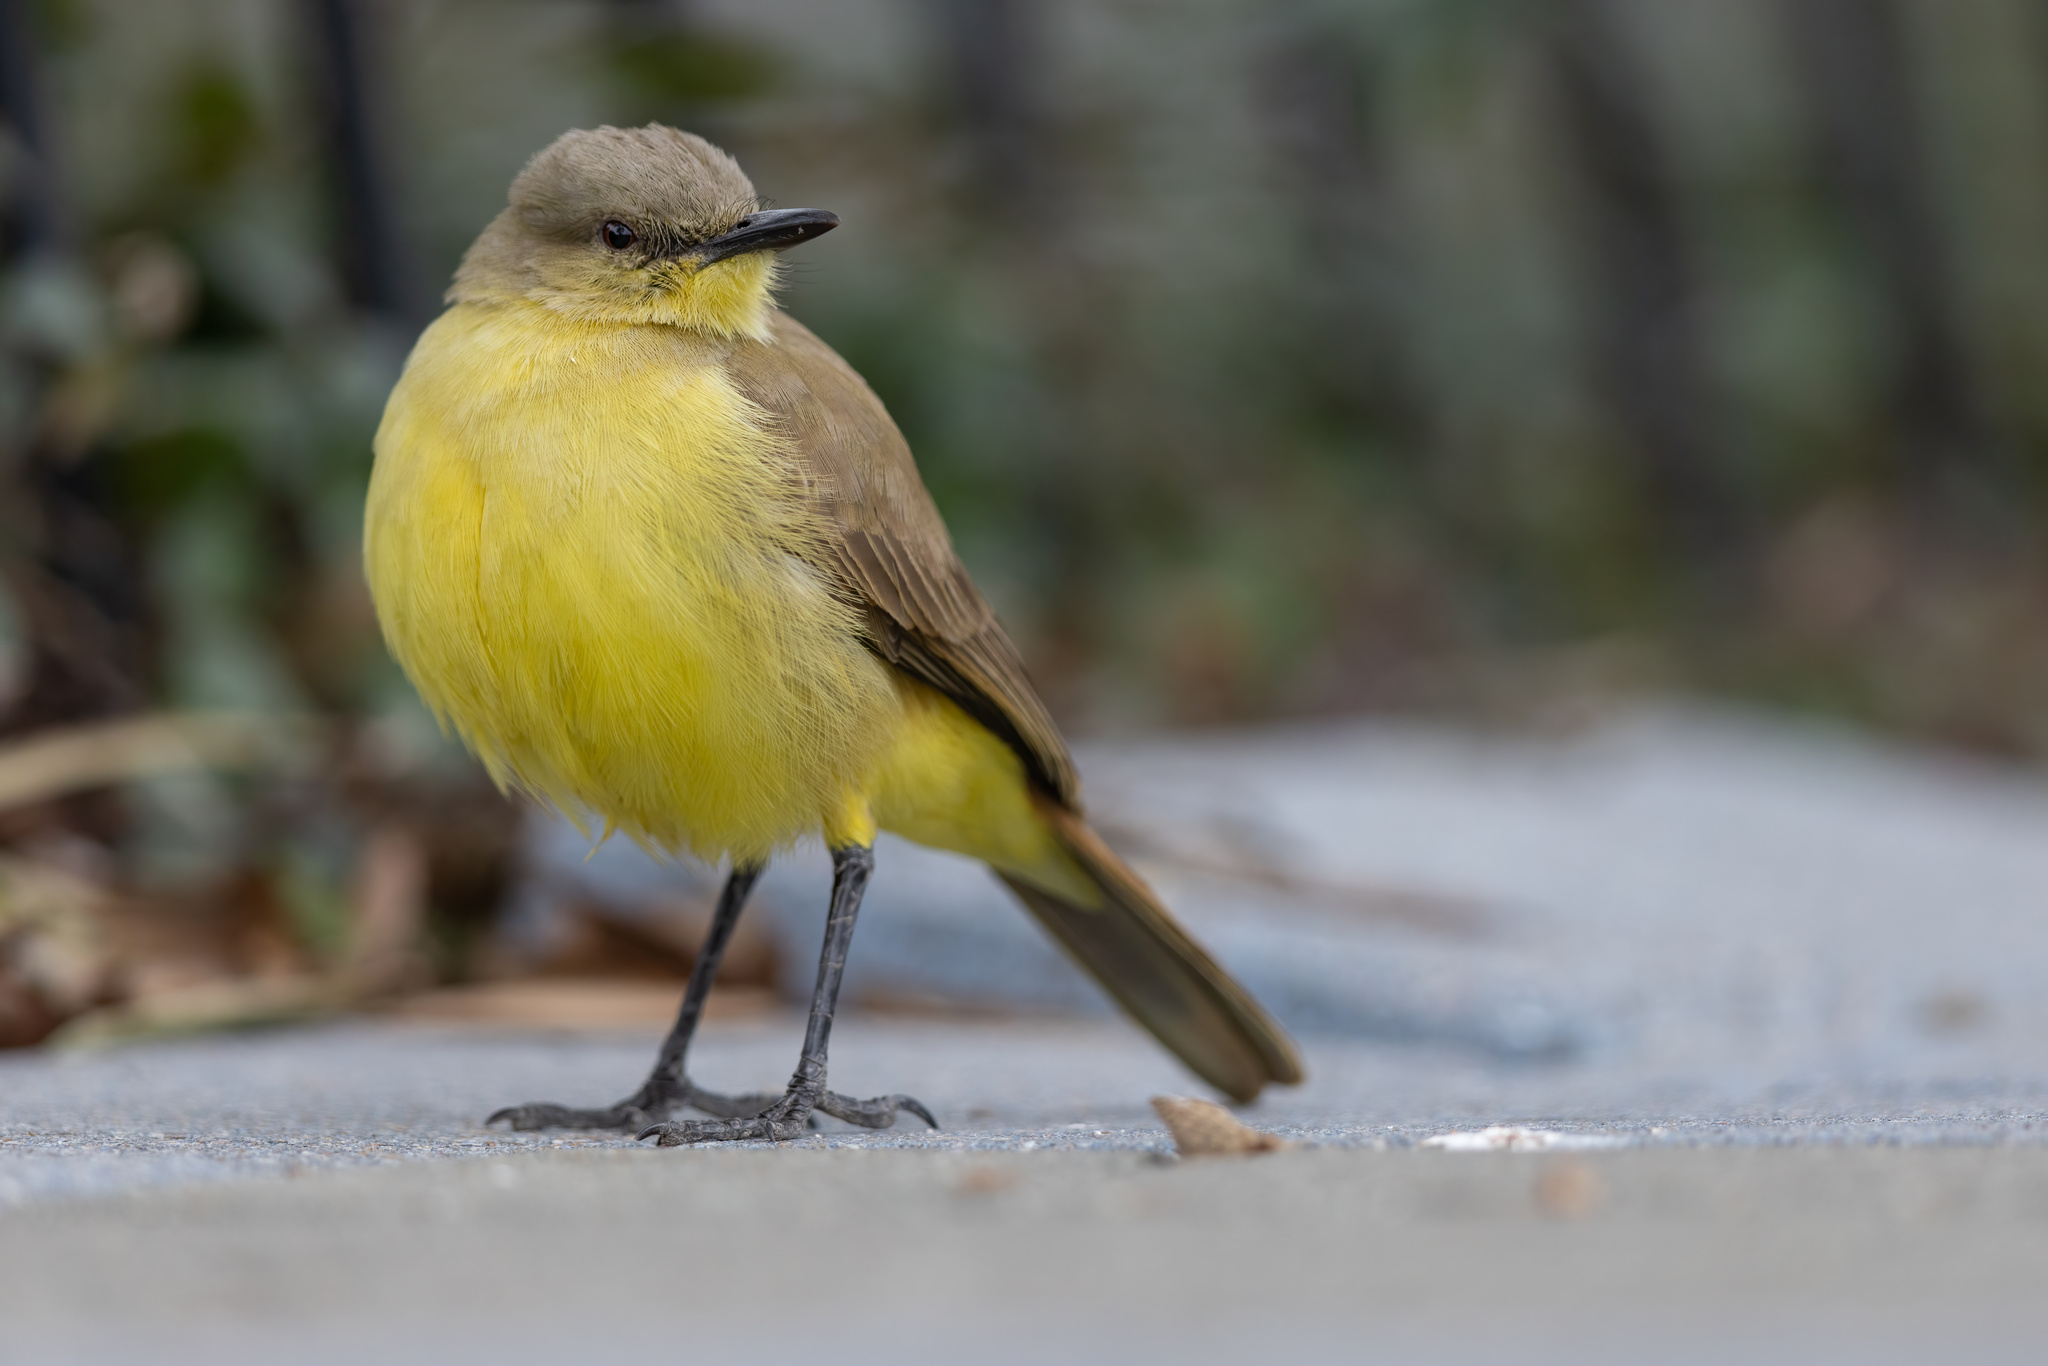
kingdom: Animalia
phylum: Chordata
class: Aves
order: Passeriformes
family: Tyrannidae
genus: Machetornis
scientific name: Machetornis rixosa
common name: Cattle tyrant
